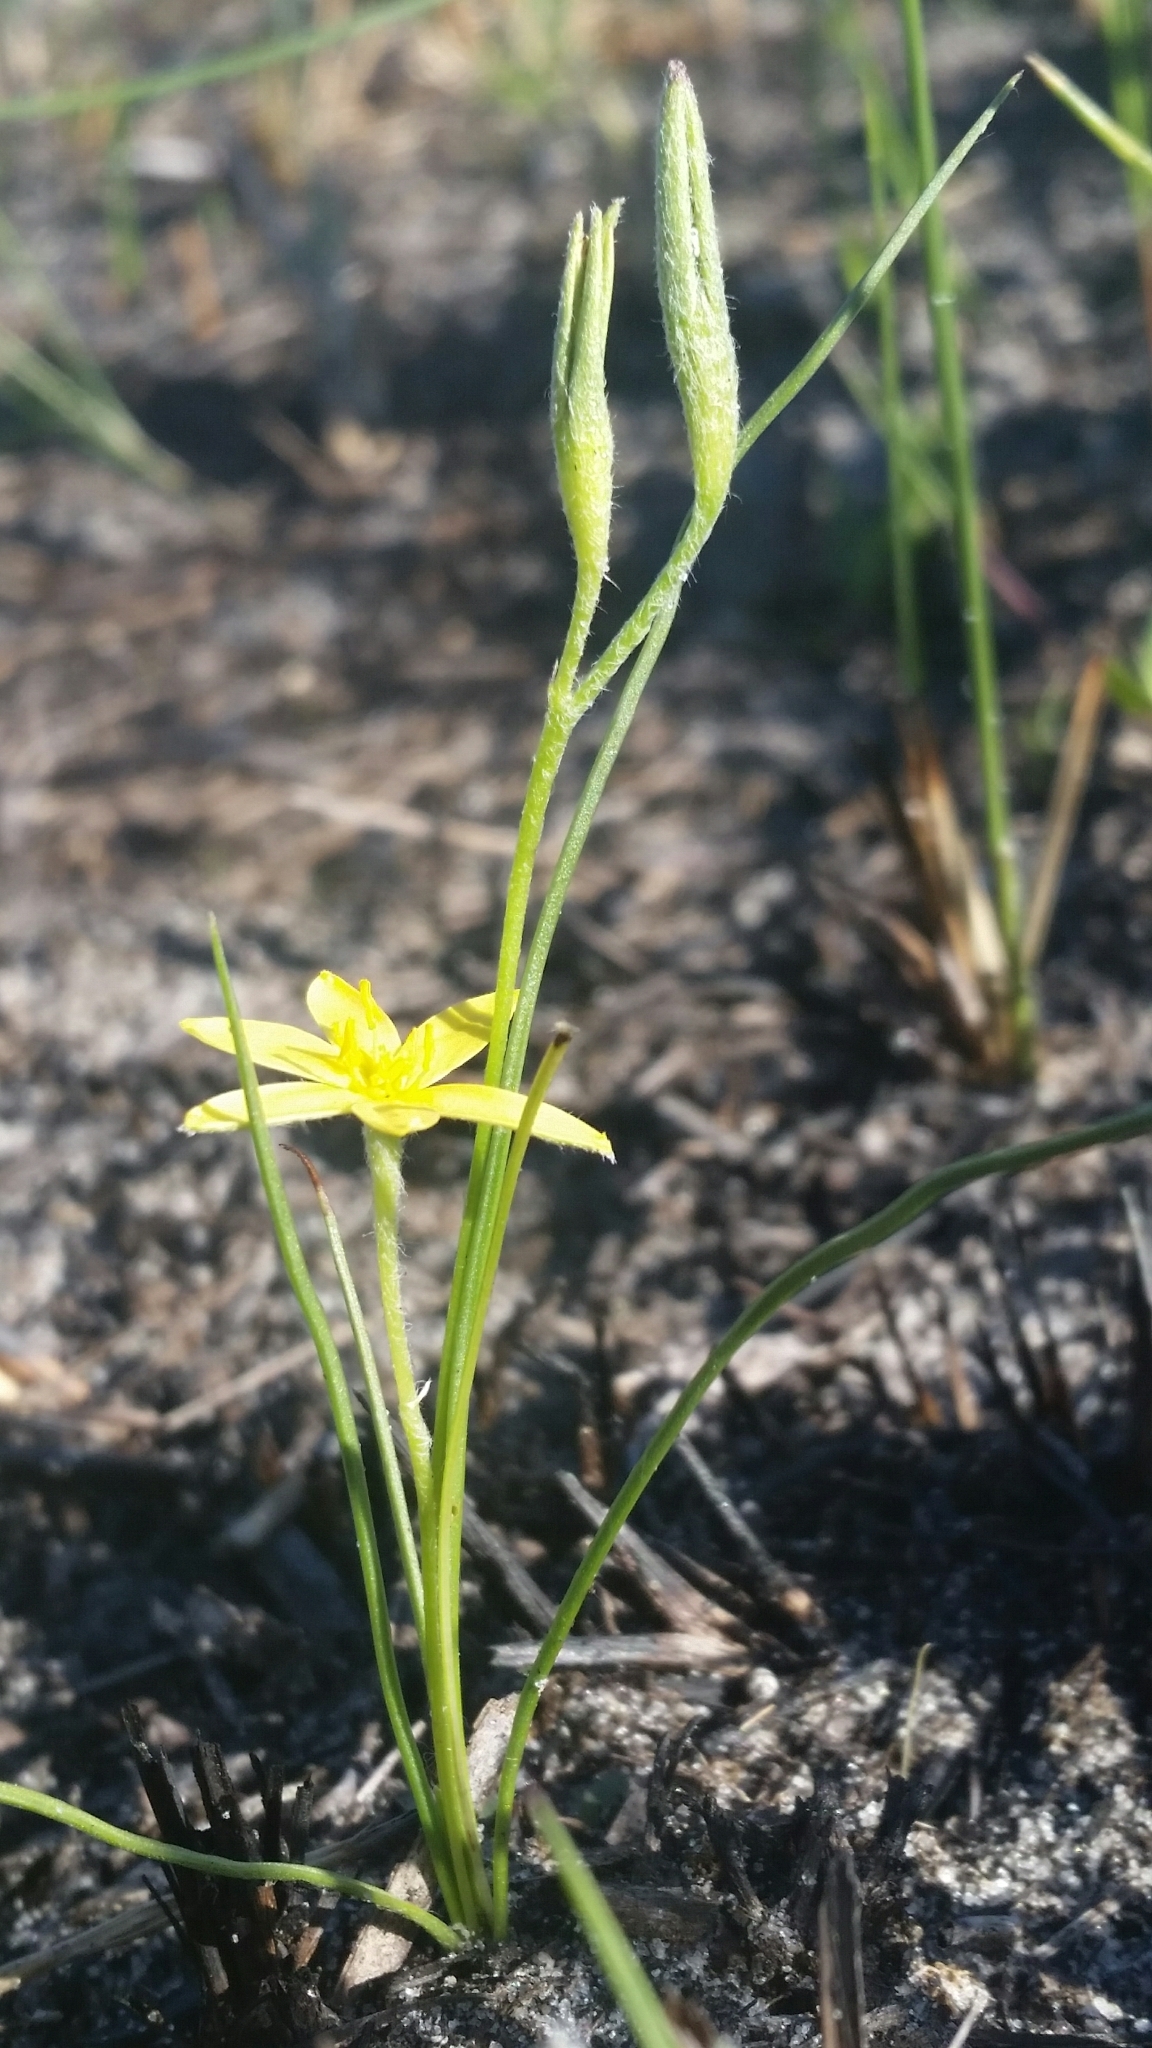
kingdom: Plantae
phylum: Tracheophyta
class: Liliopsida
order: Asparagales
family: Hypoxidaceae
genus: Hypoxis
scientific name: Hypoxis juncea
